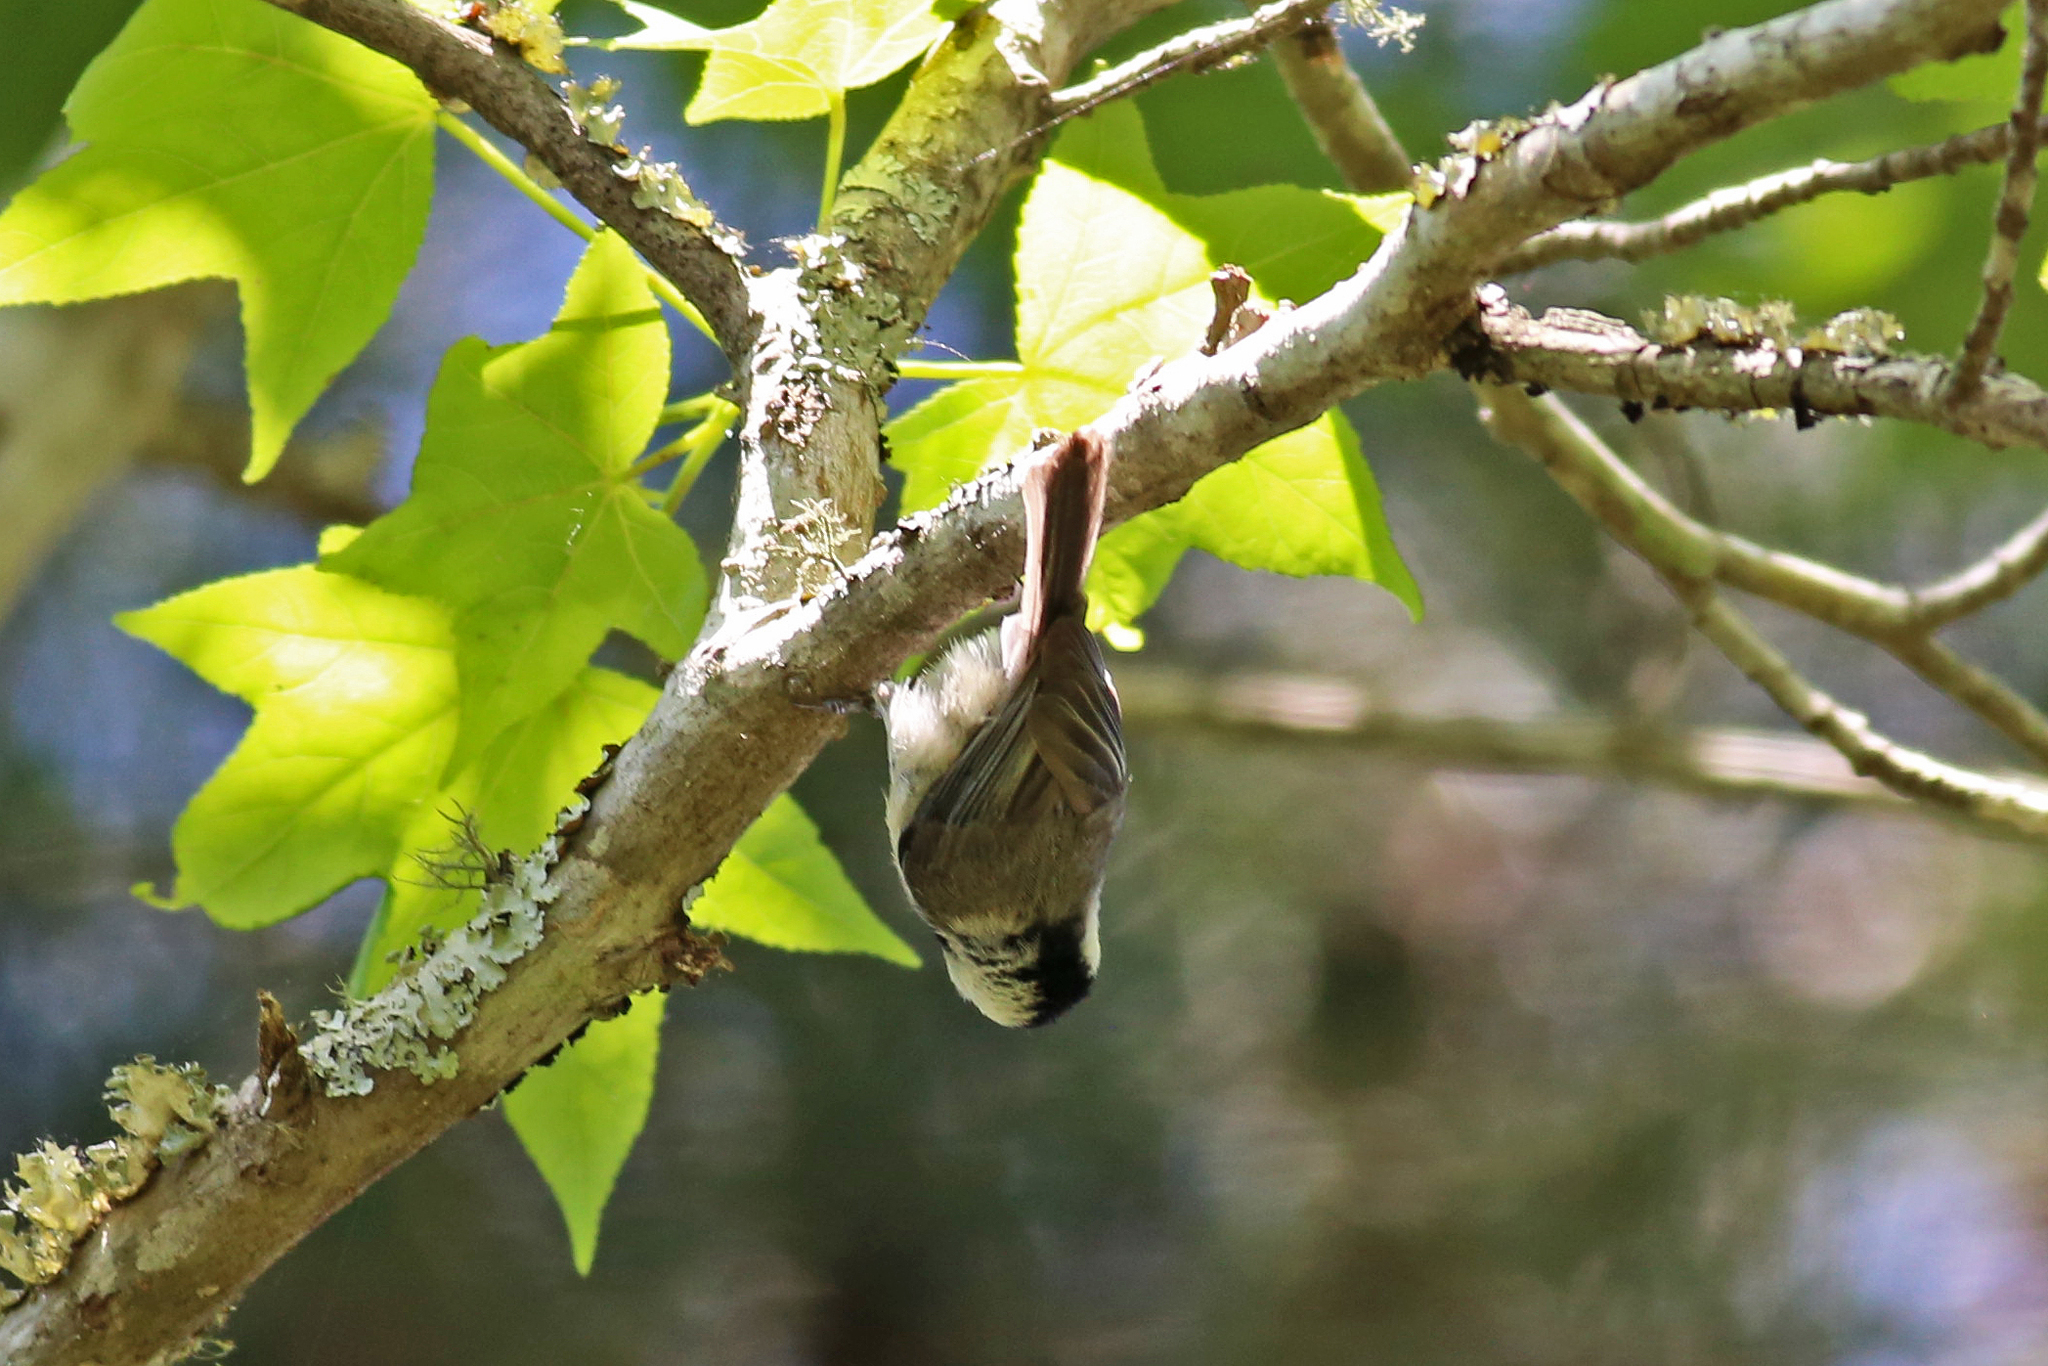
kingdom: Animalia
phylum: Chordata
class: Aves
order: Passeriformes
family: Paridae
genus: Poecile
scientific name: Poecile carolinensis
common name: Carolina chickadee
